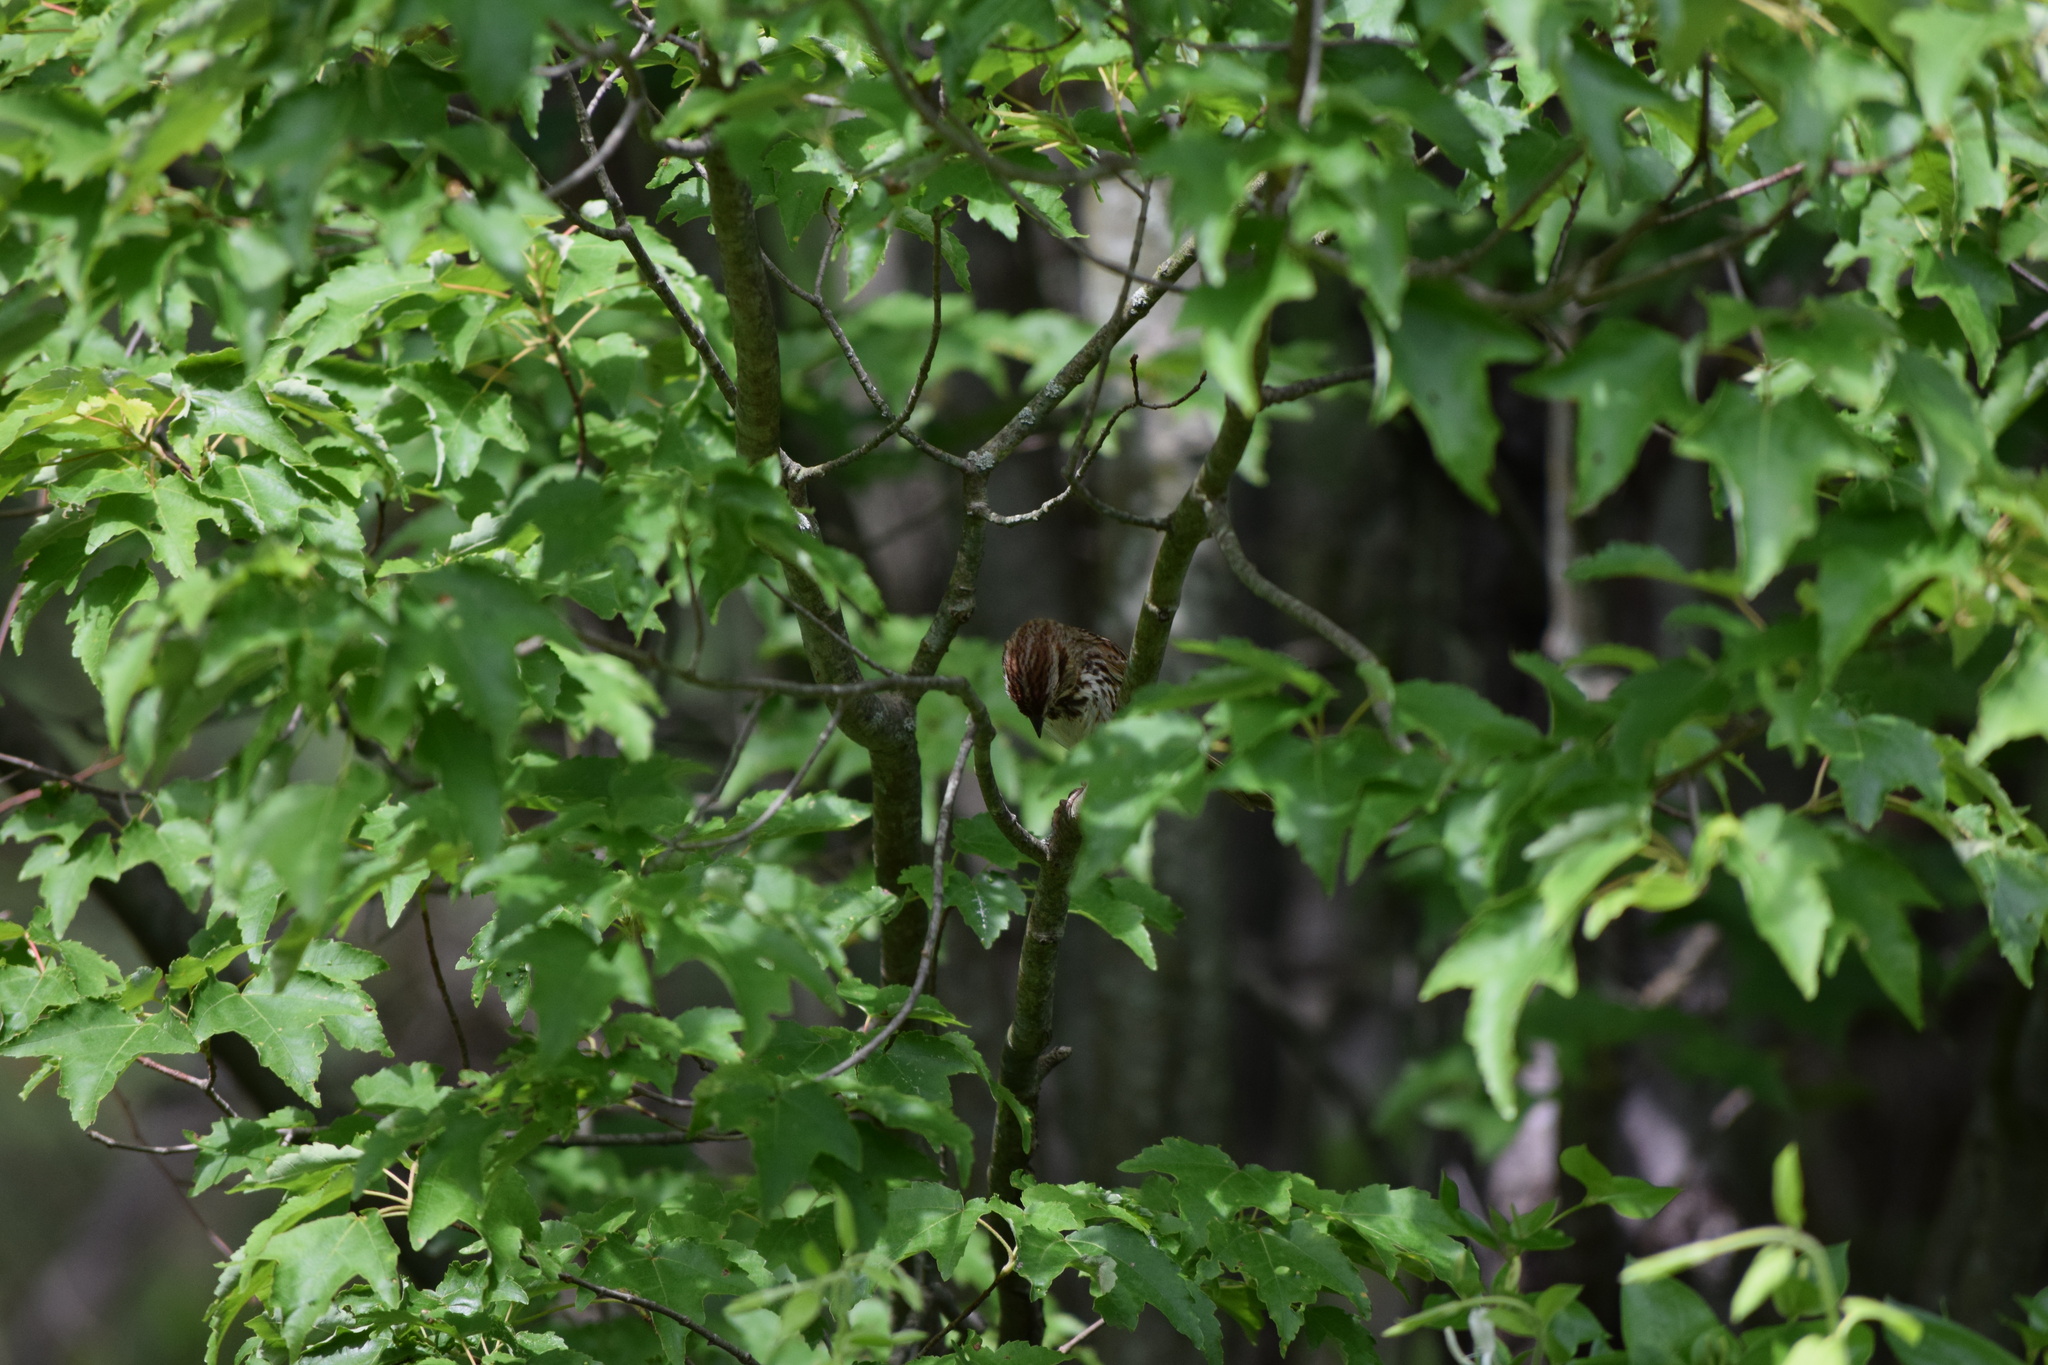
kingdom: Animalia
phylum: Chordata
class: Aves
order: Passeriformes
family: Passerellidae
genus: Melospiza
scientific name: Melospiza melodia
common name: Song sparrow
